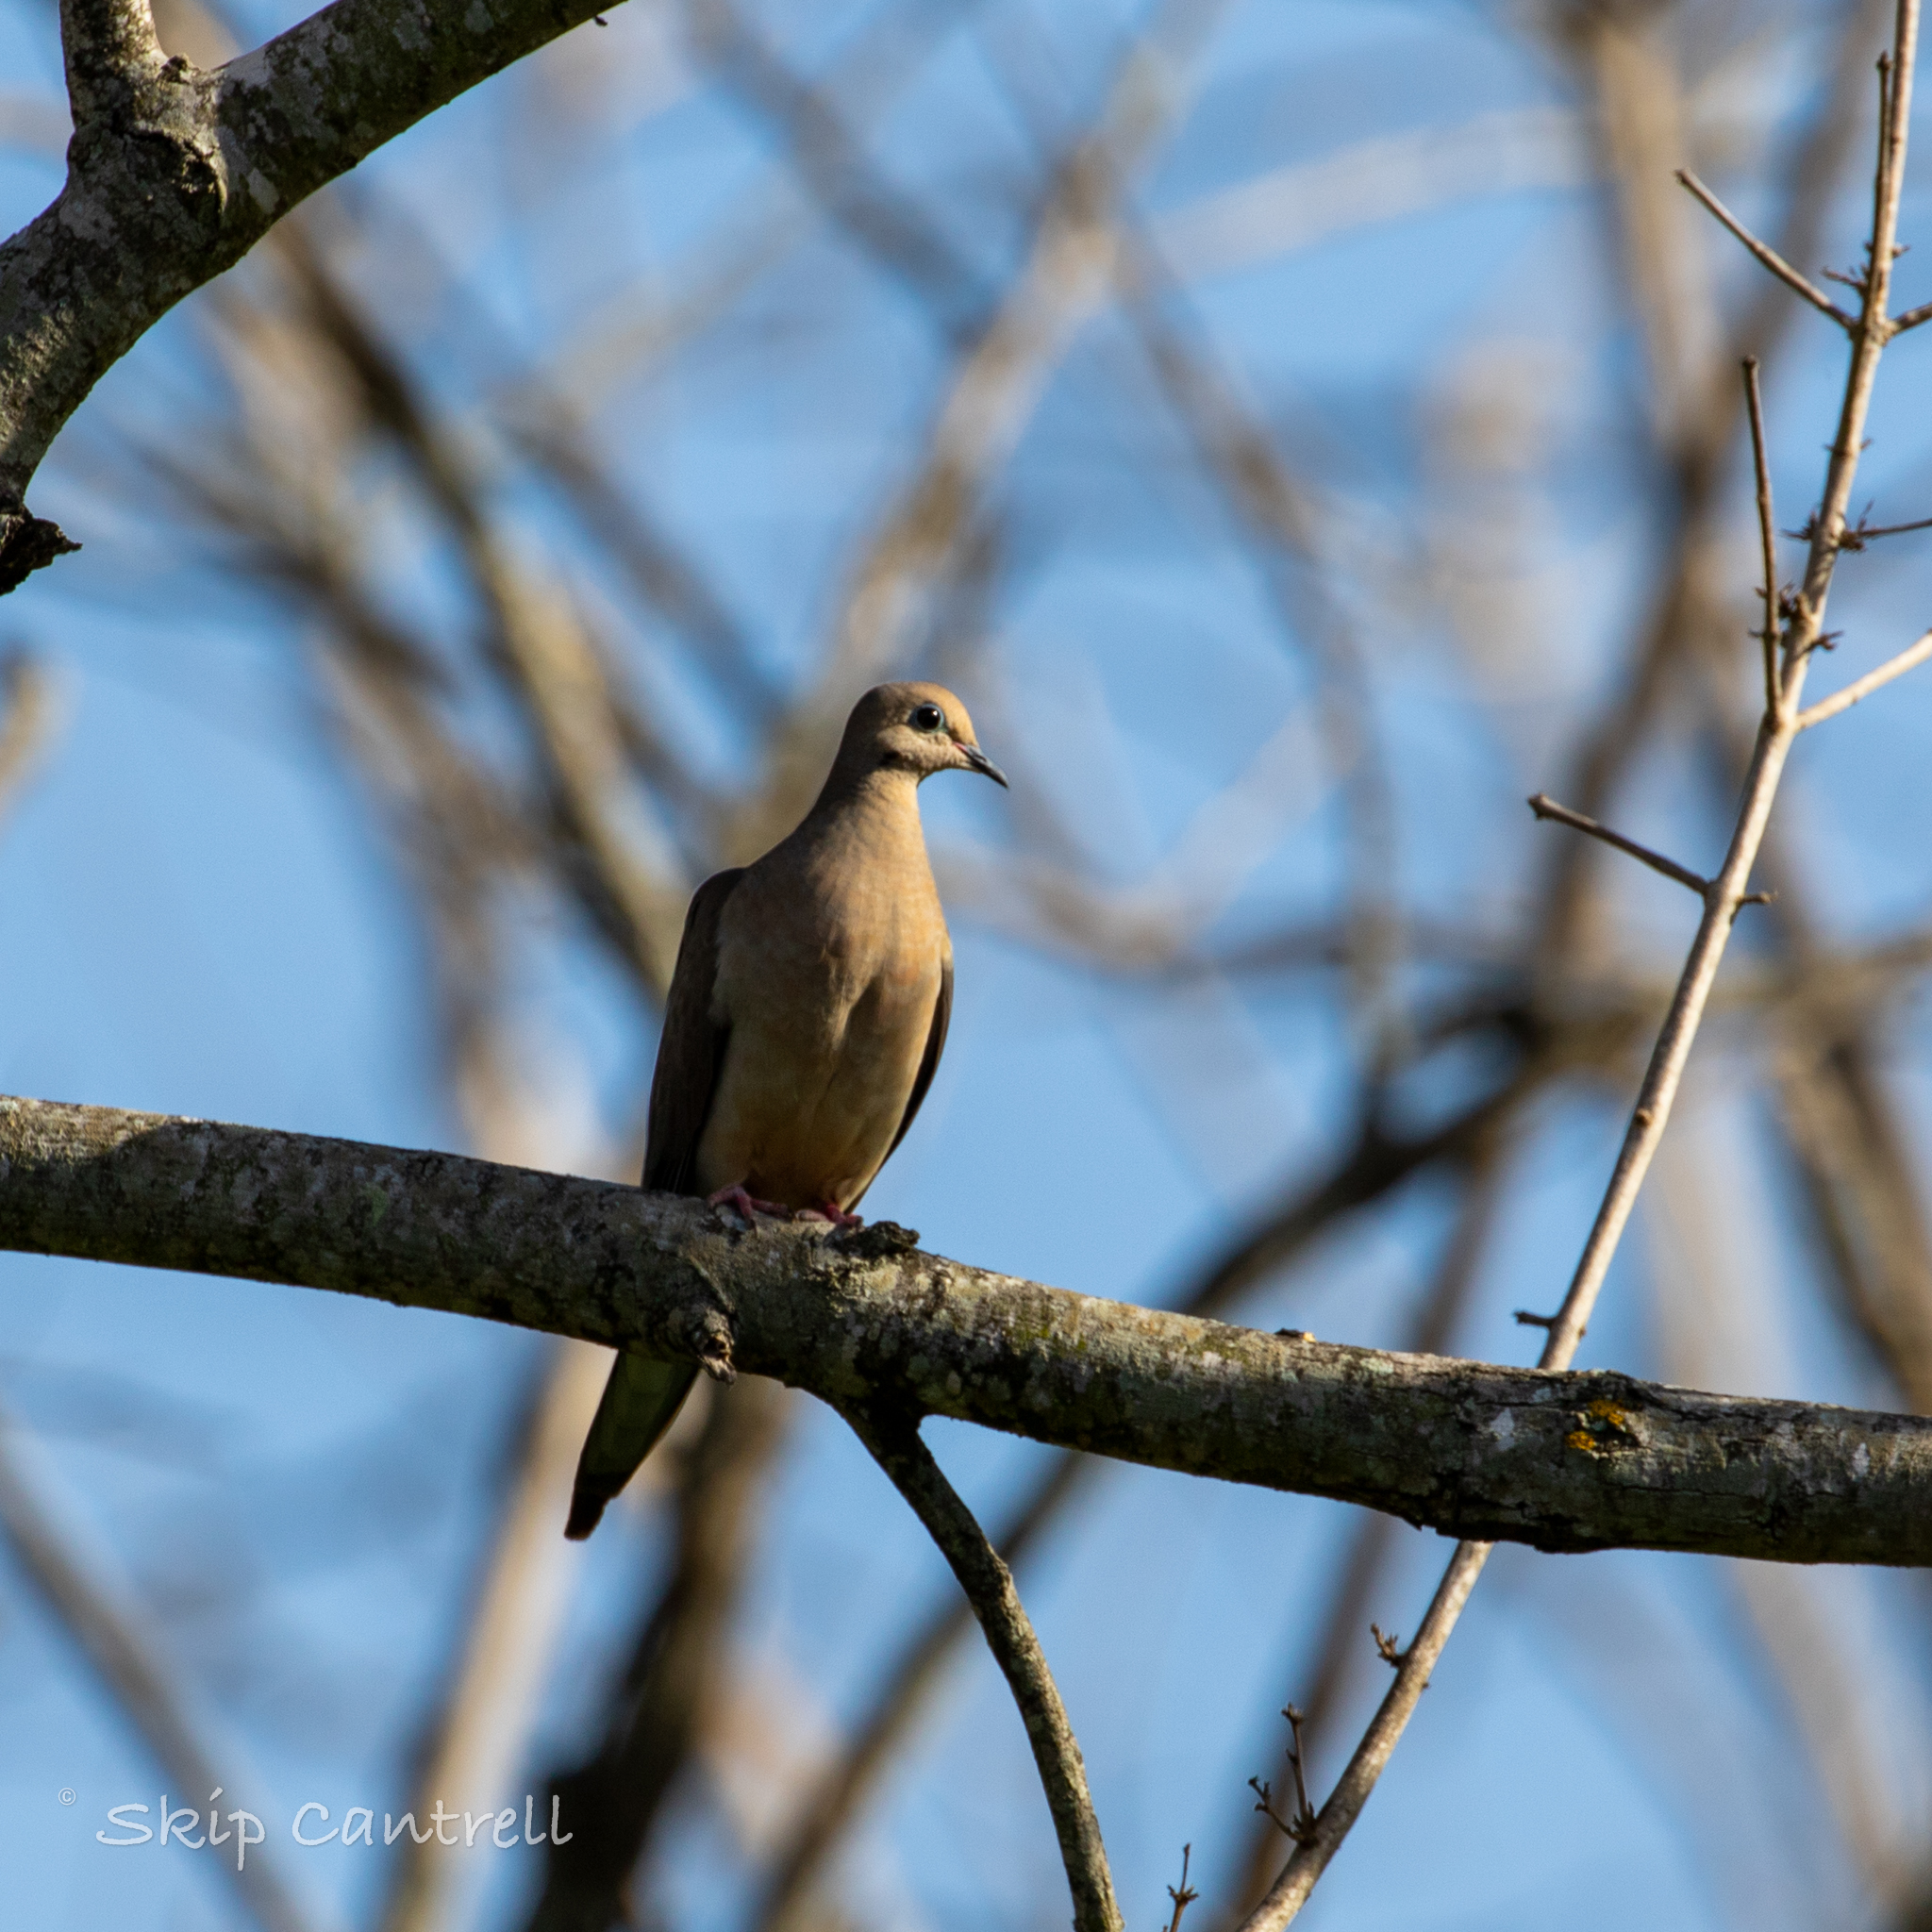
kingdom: Animalia
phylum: Chordata
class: Aves
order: Columbiformes
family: Columbidae
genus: Zenaida
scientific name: Zenaida macroura
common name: Mourning dove
